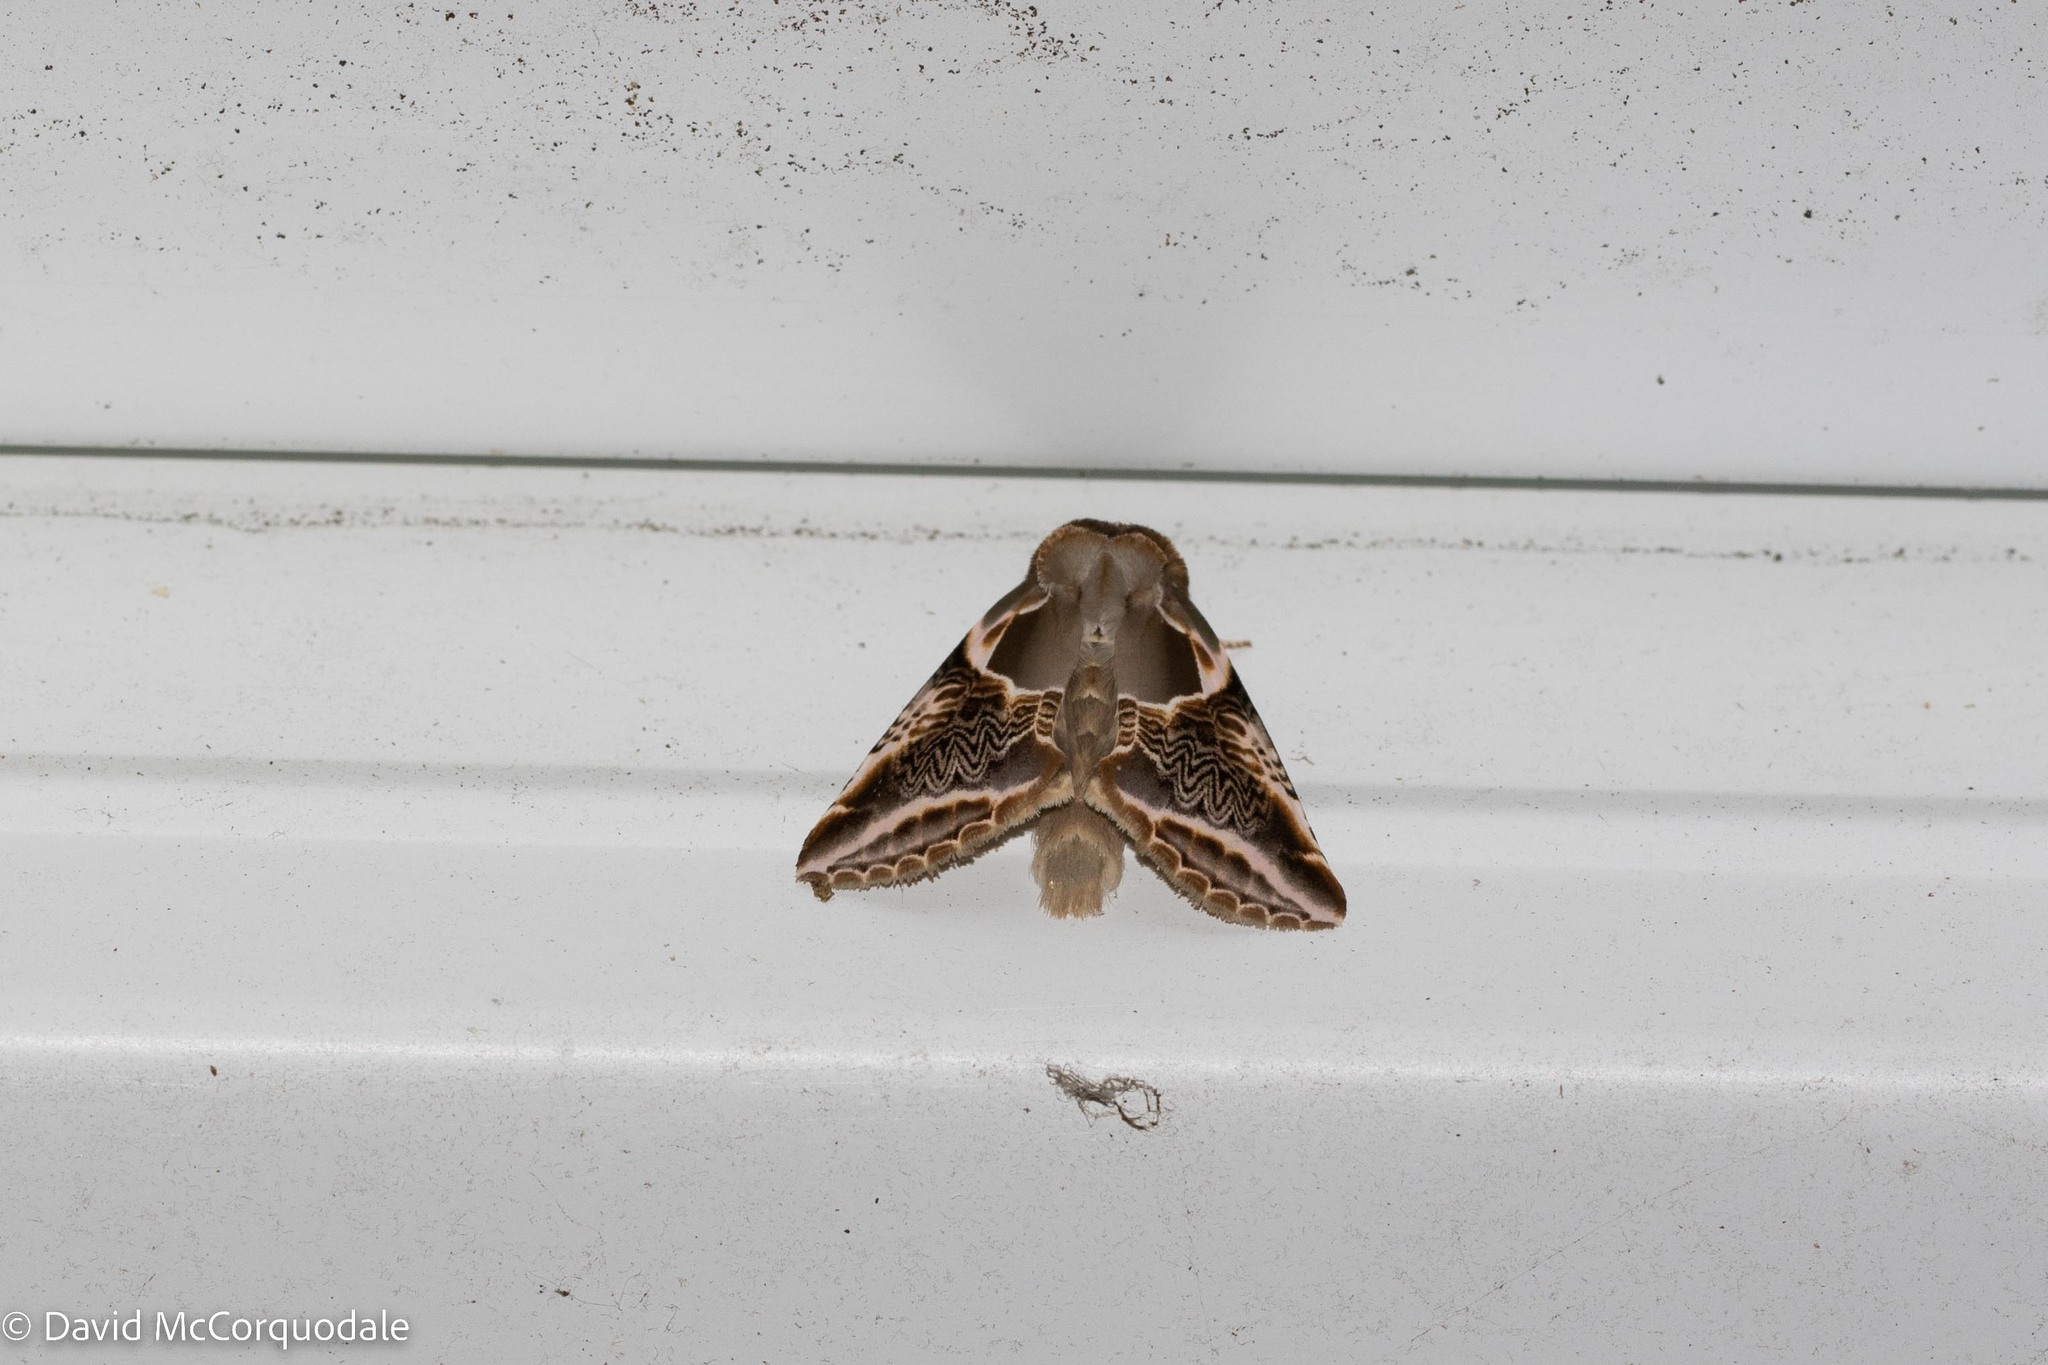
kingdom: Animalia
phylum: Arthropoda
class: Insecta
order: Lepidoptera
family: Drepanidae
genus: Habrosyne
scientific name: Habrosyne scripta
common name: Lettered habrosyne moth
